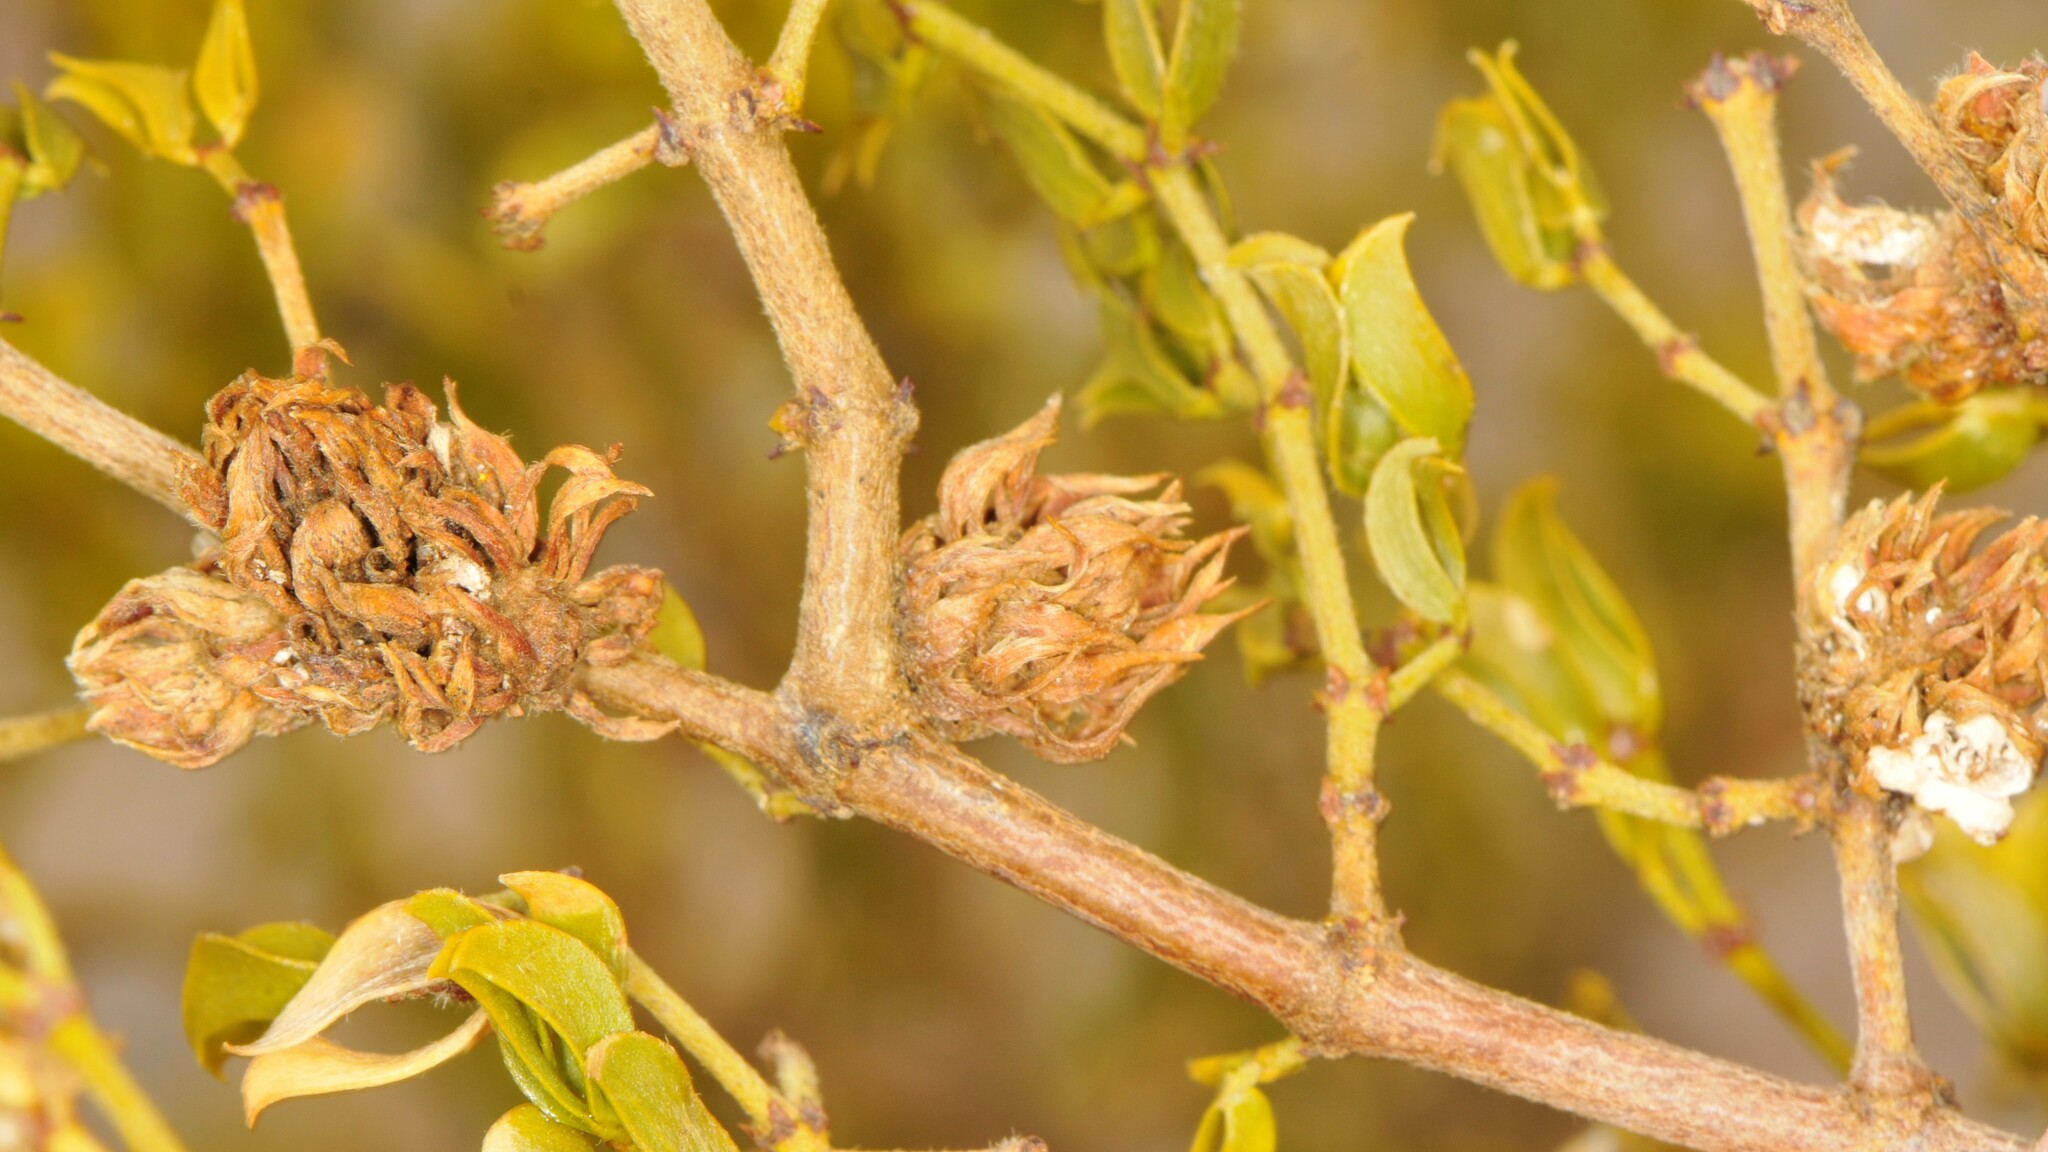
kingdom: Animalia
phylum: Arthropoda
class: Insecta
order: Diptera
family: Cecidomyiidae
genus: Asphondylia
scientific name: Asphondylia rosetta
